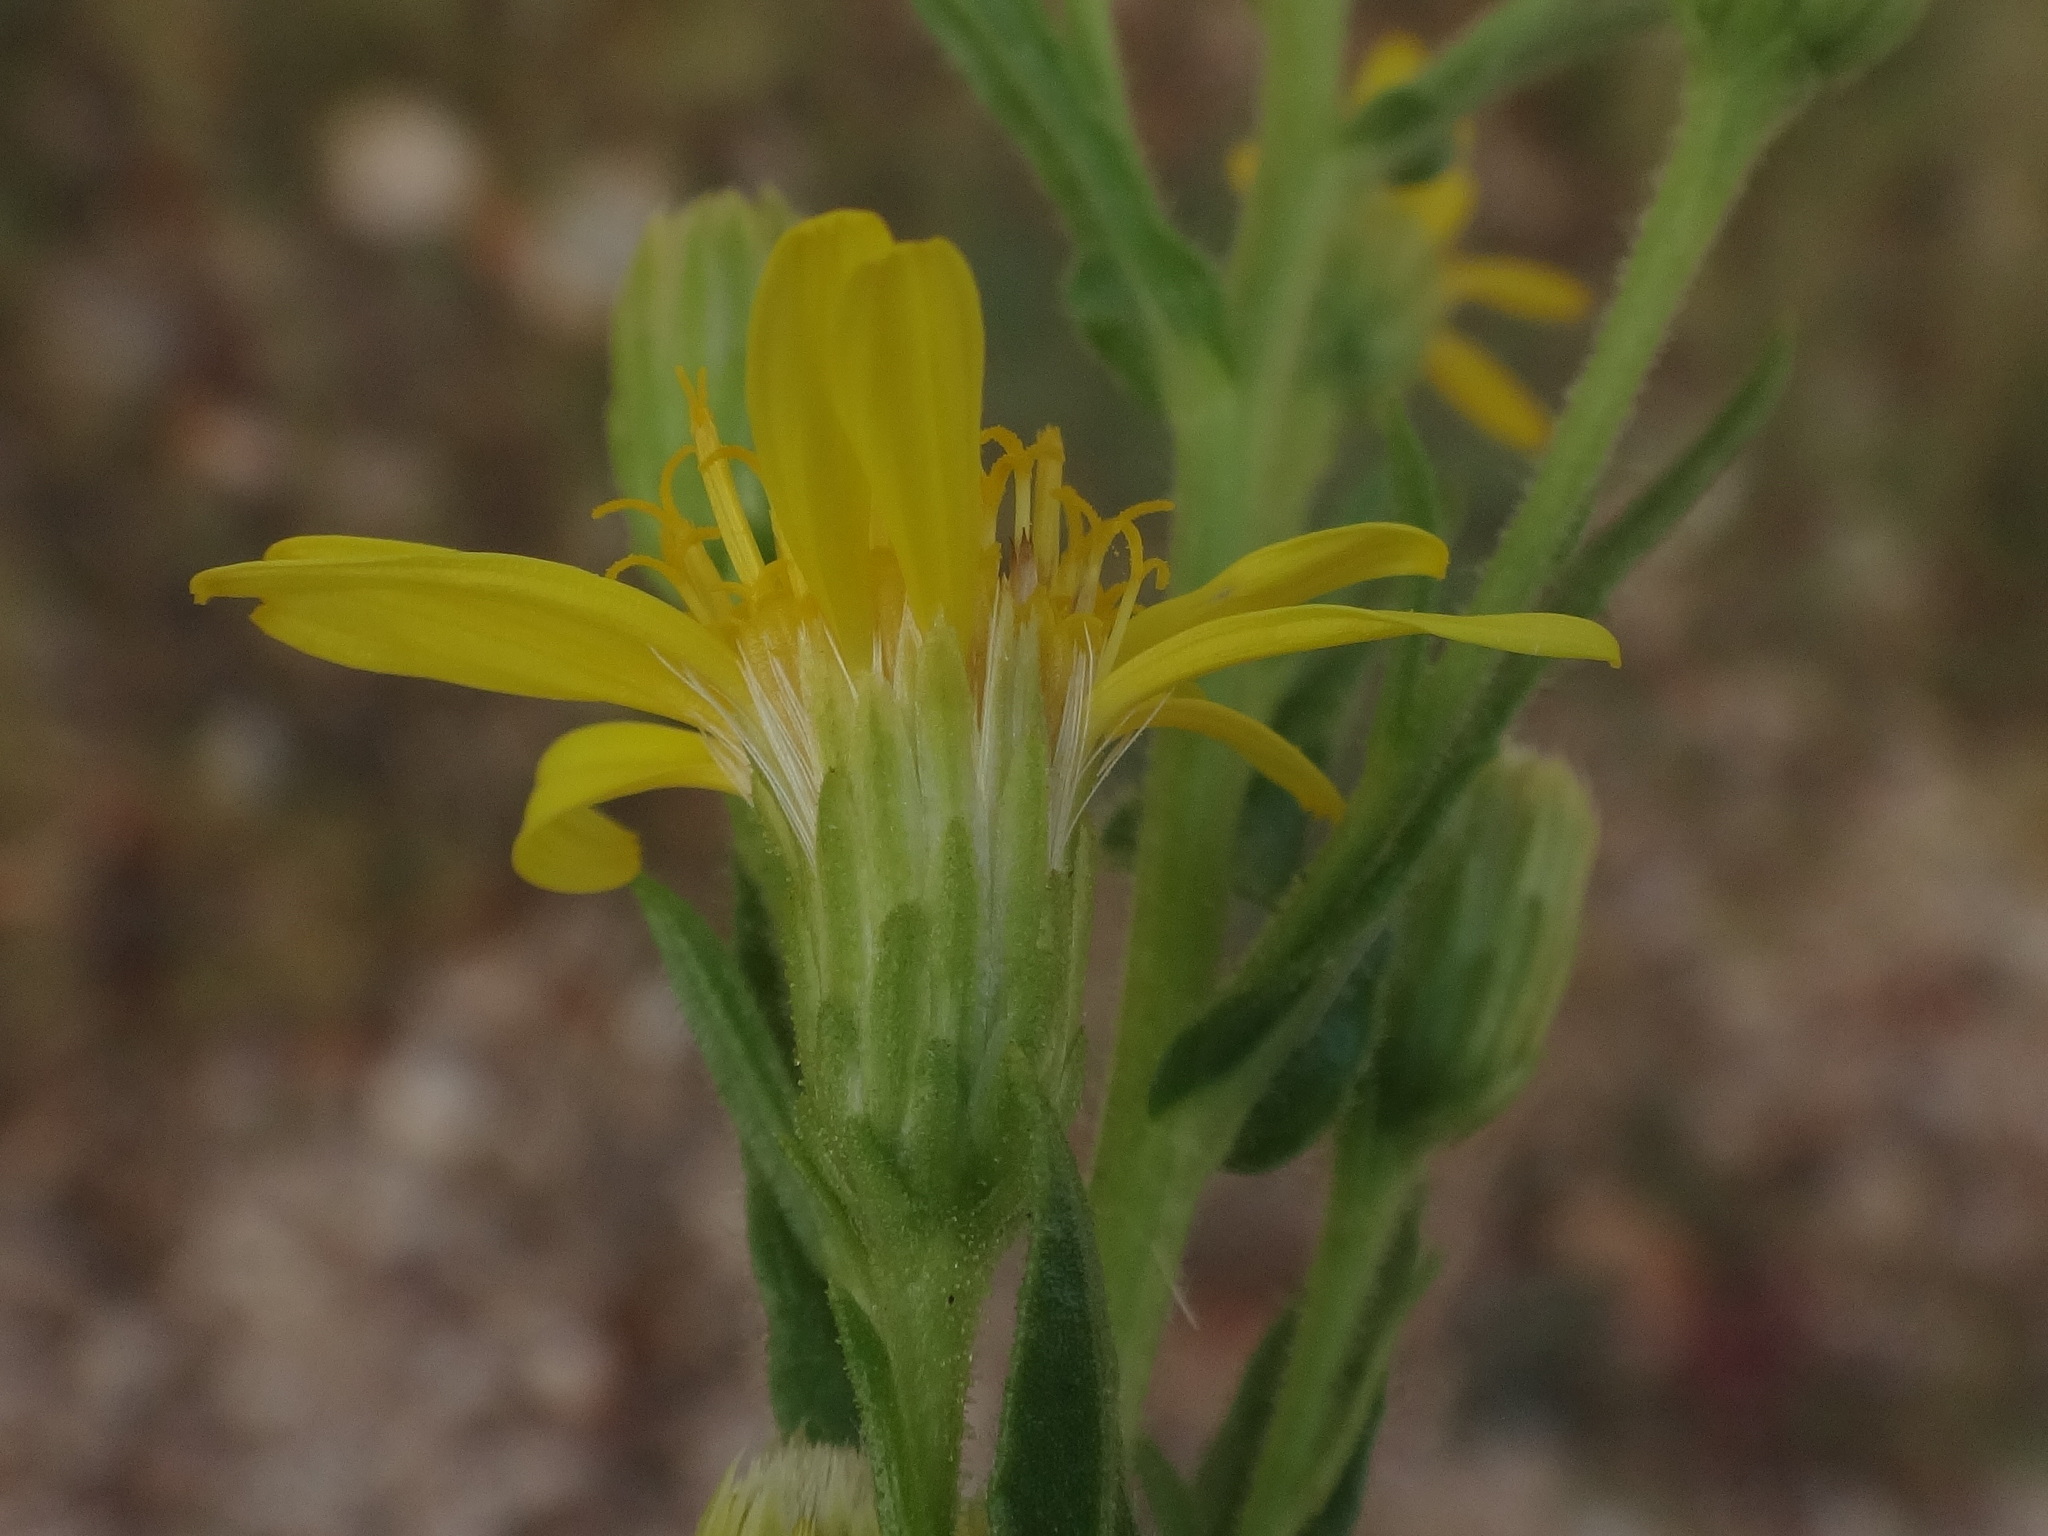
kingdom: Plantae
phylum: Tracheophyta
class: Magnoliopsida
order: Asterales
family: Asteraceae
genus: Dittrichia
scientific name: Dittrichia viscosa
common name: Woody fleabane
